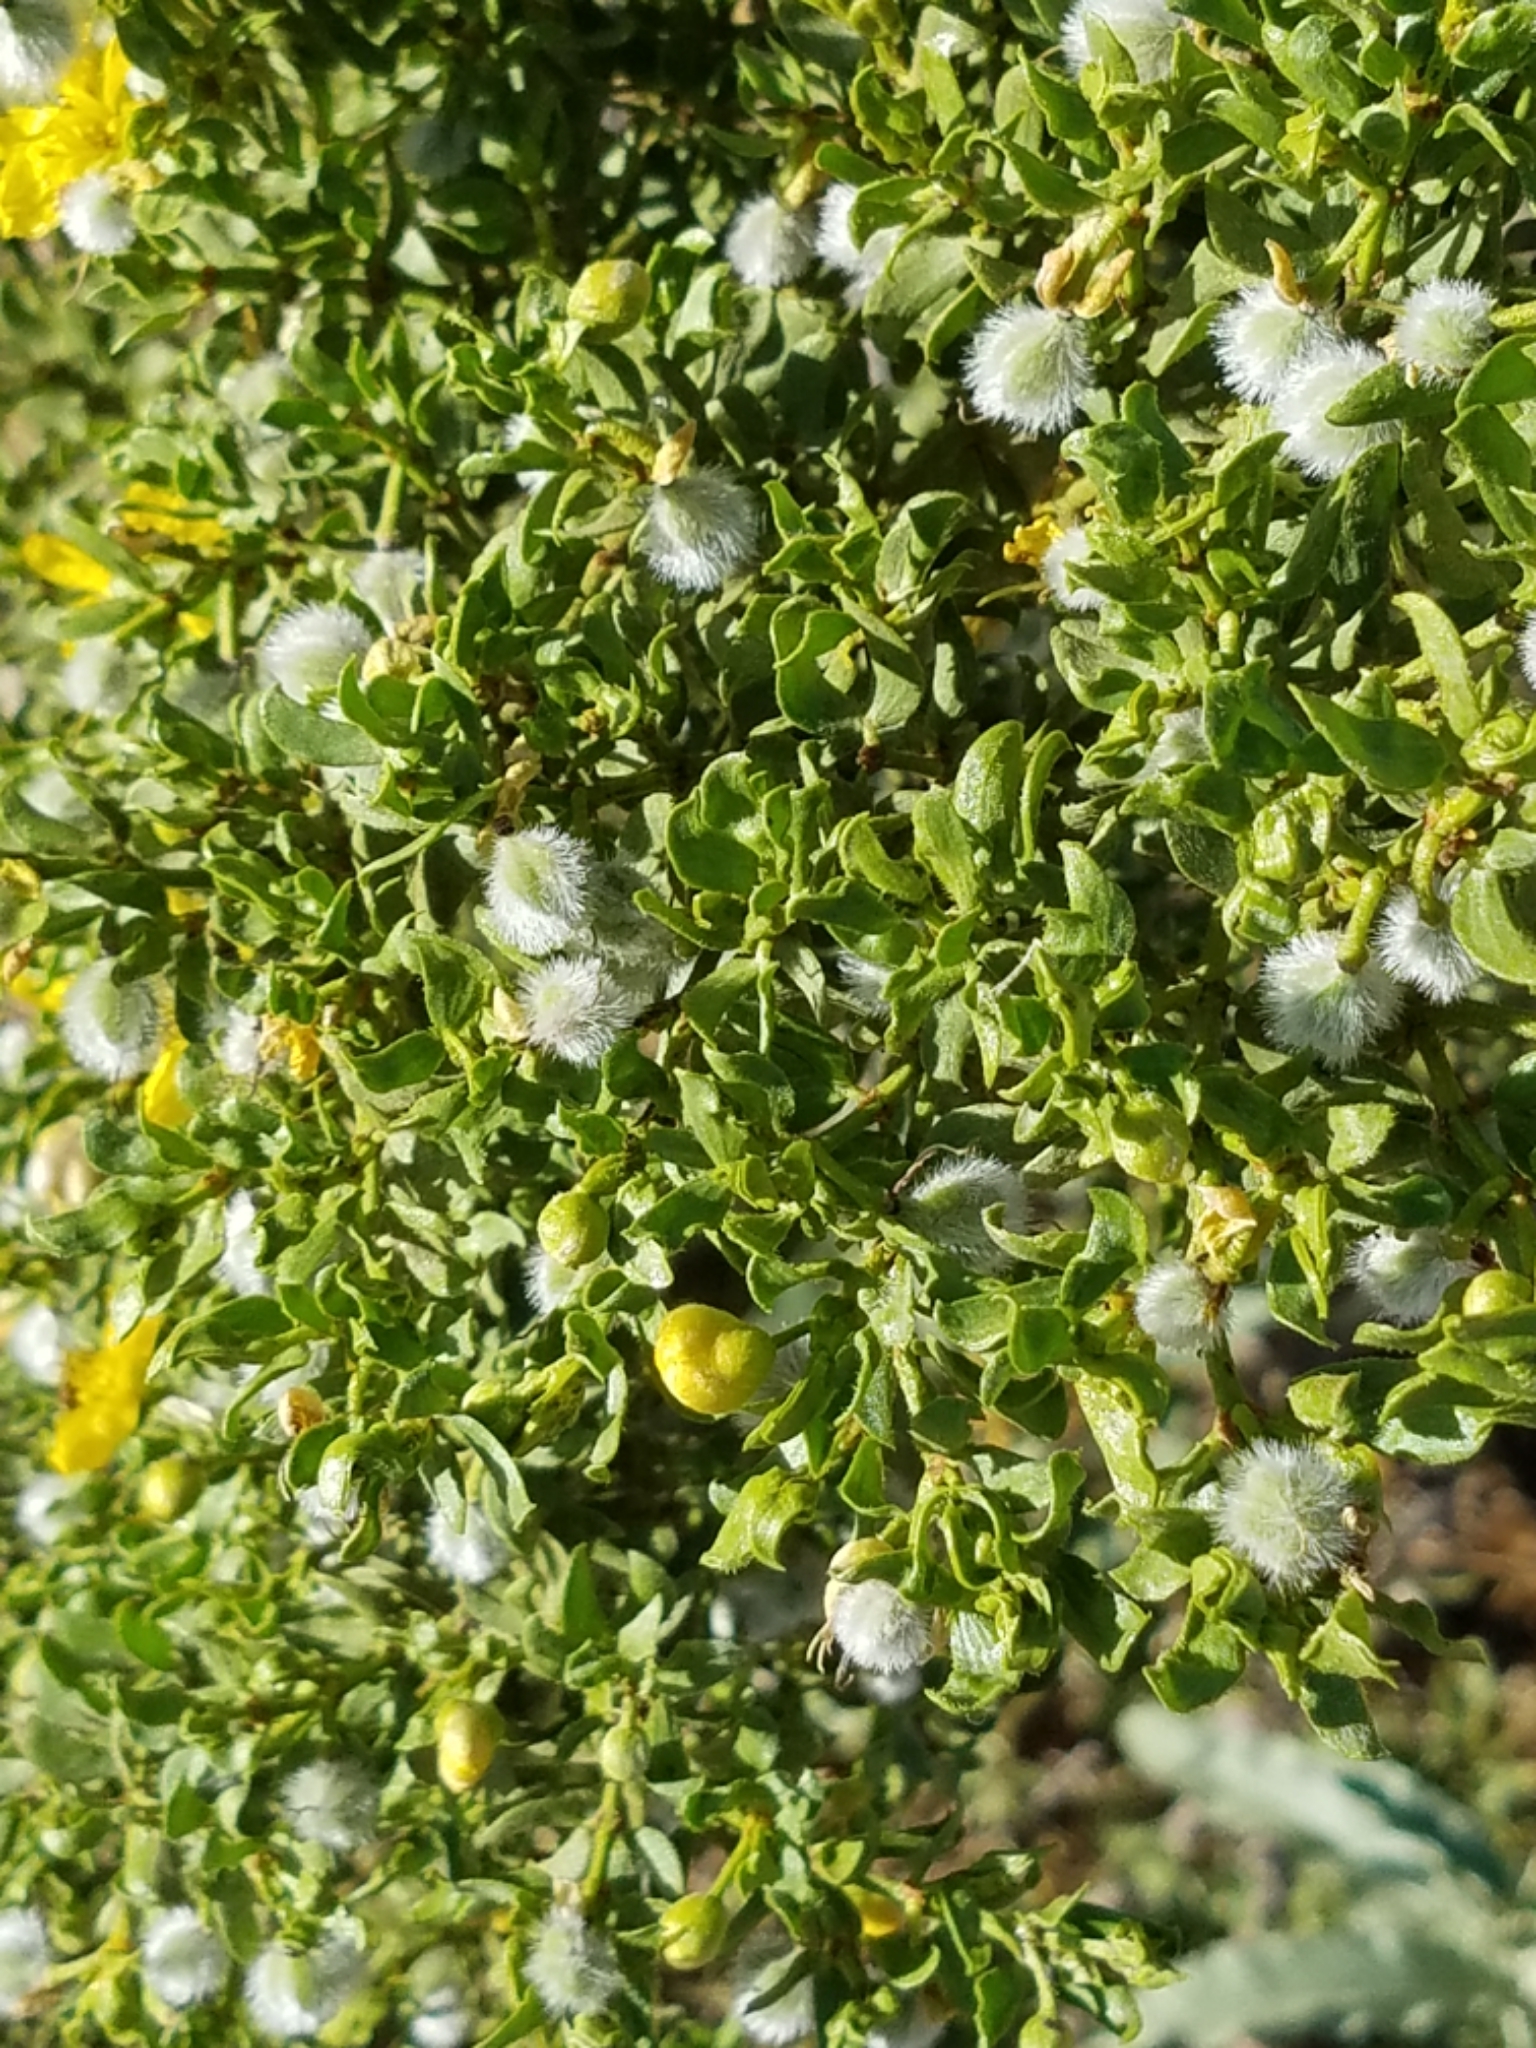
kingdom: Plantae
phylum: Tracheophyta
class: Magnoliopsida
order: Zygophyllales
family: Zygophyllaceae
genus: Larrea
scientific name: Larrea tridentata
